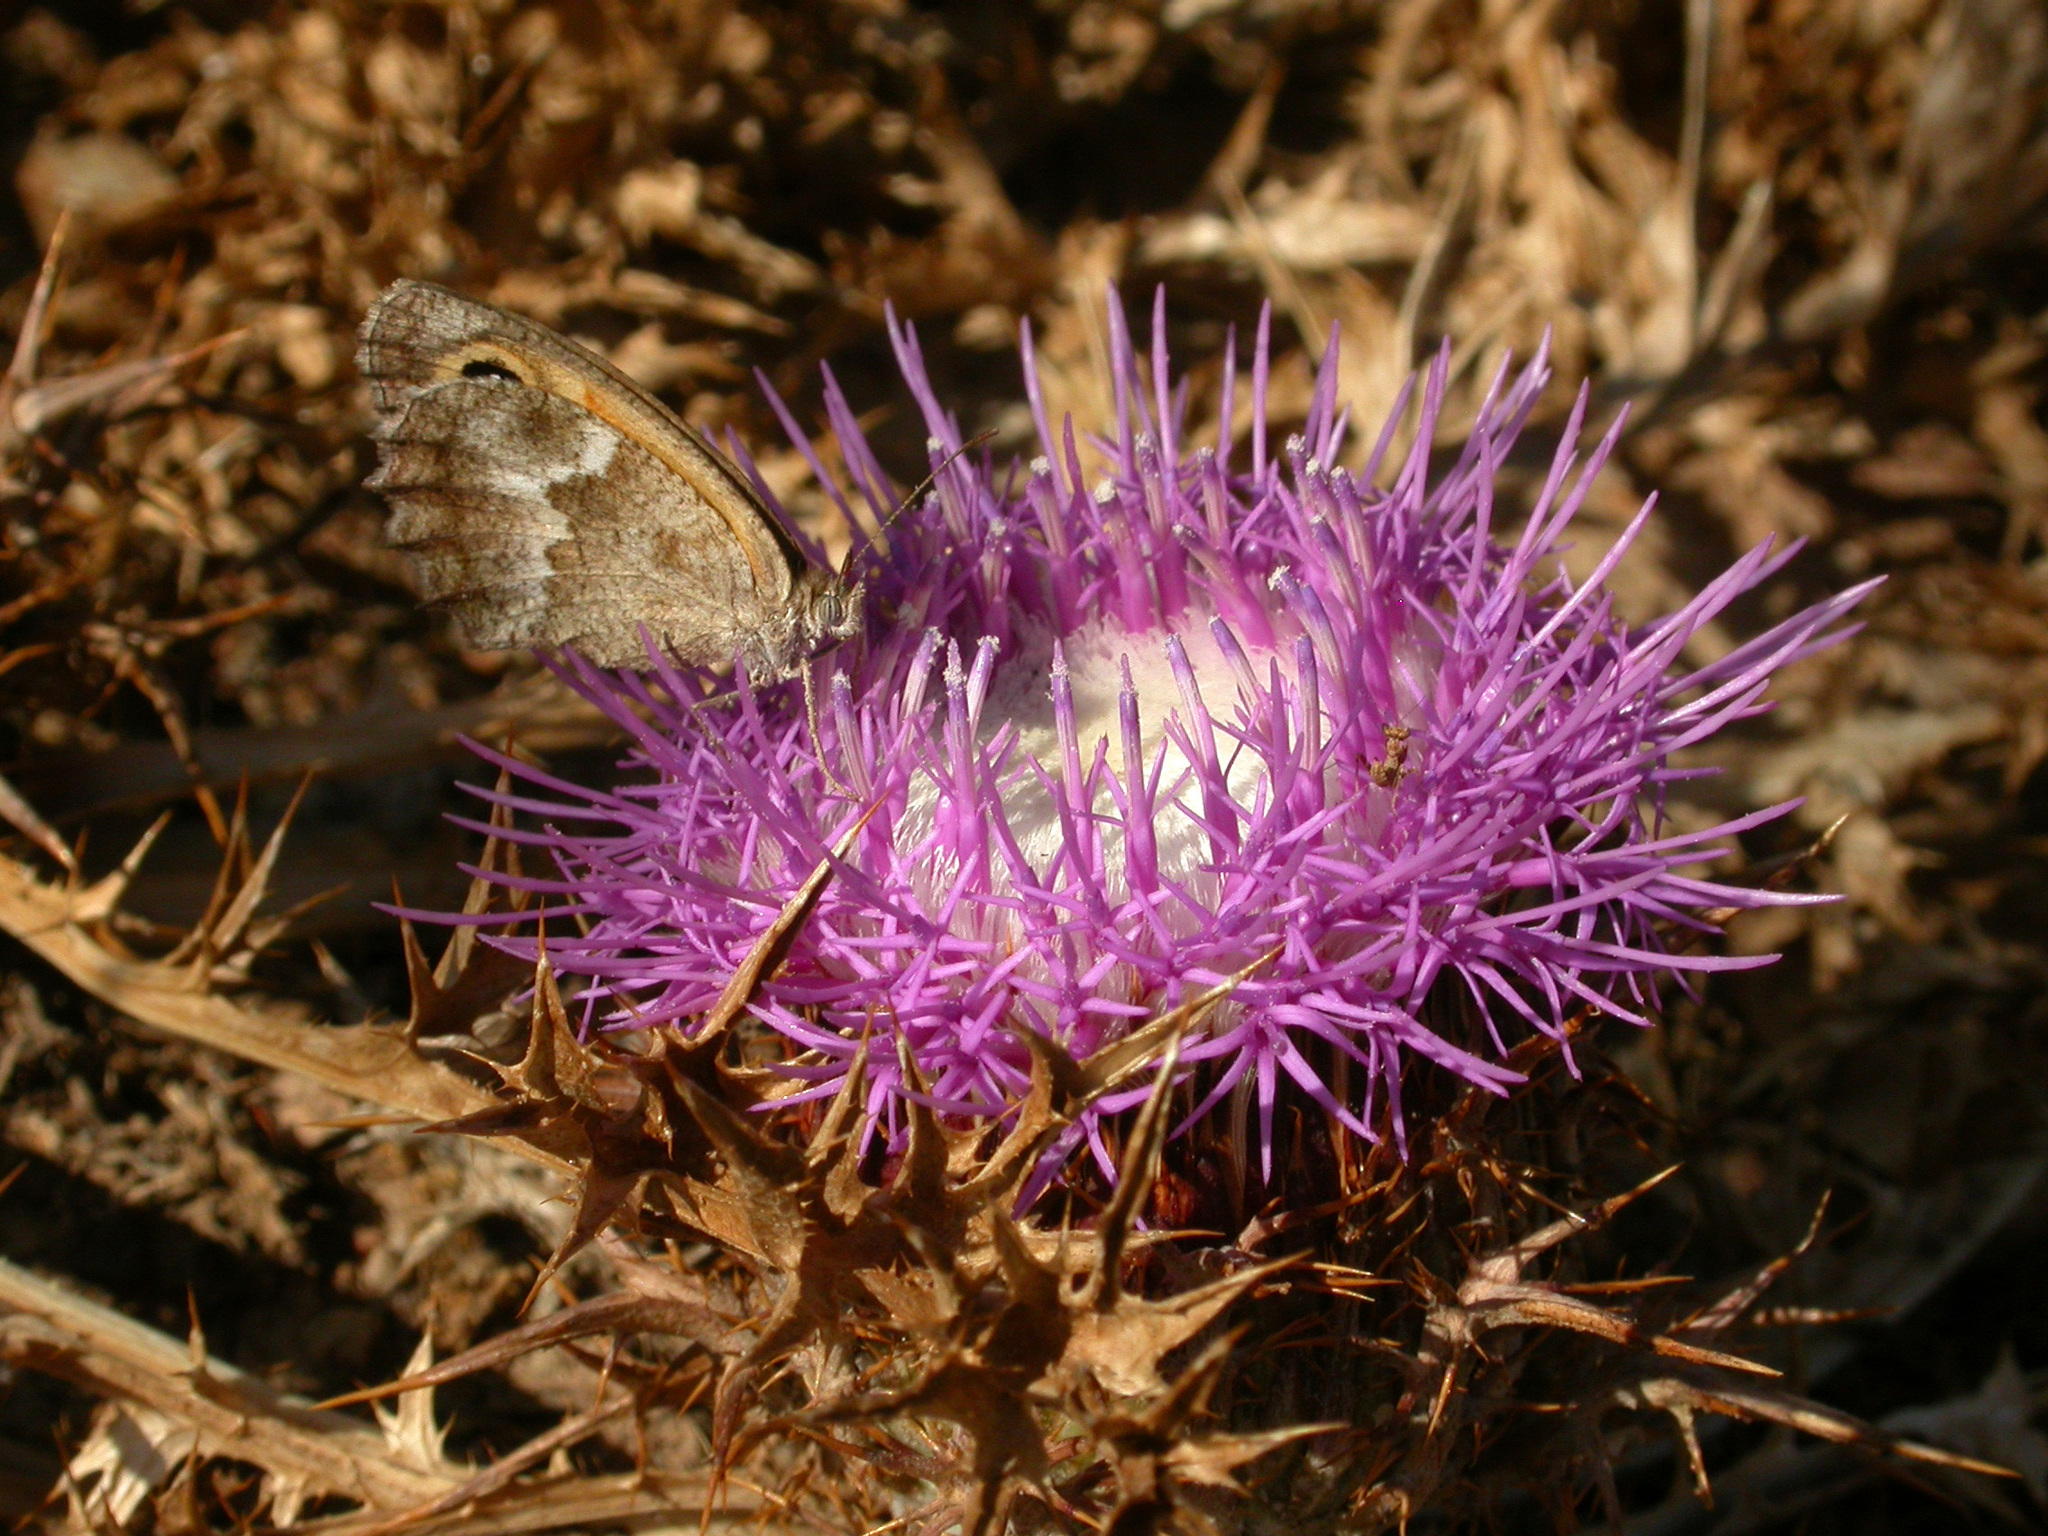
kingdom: Plantae
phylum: Tracheophyta
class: Magnoliopsida
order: Asterales
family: Asteraceae
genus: Chamaeleon
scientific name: Chamaeleon gummifer
